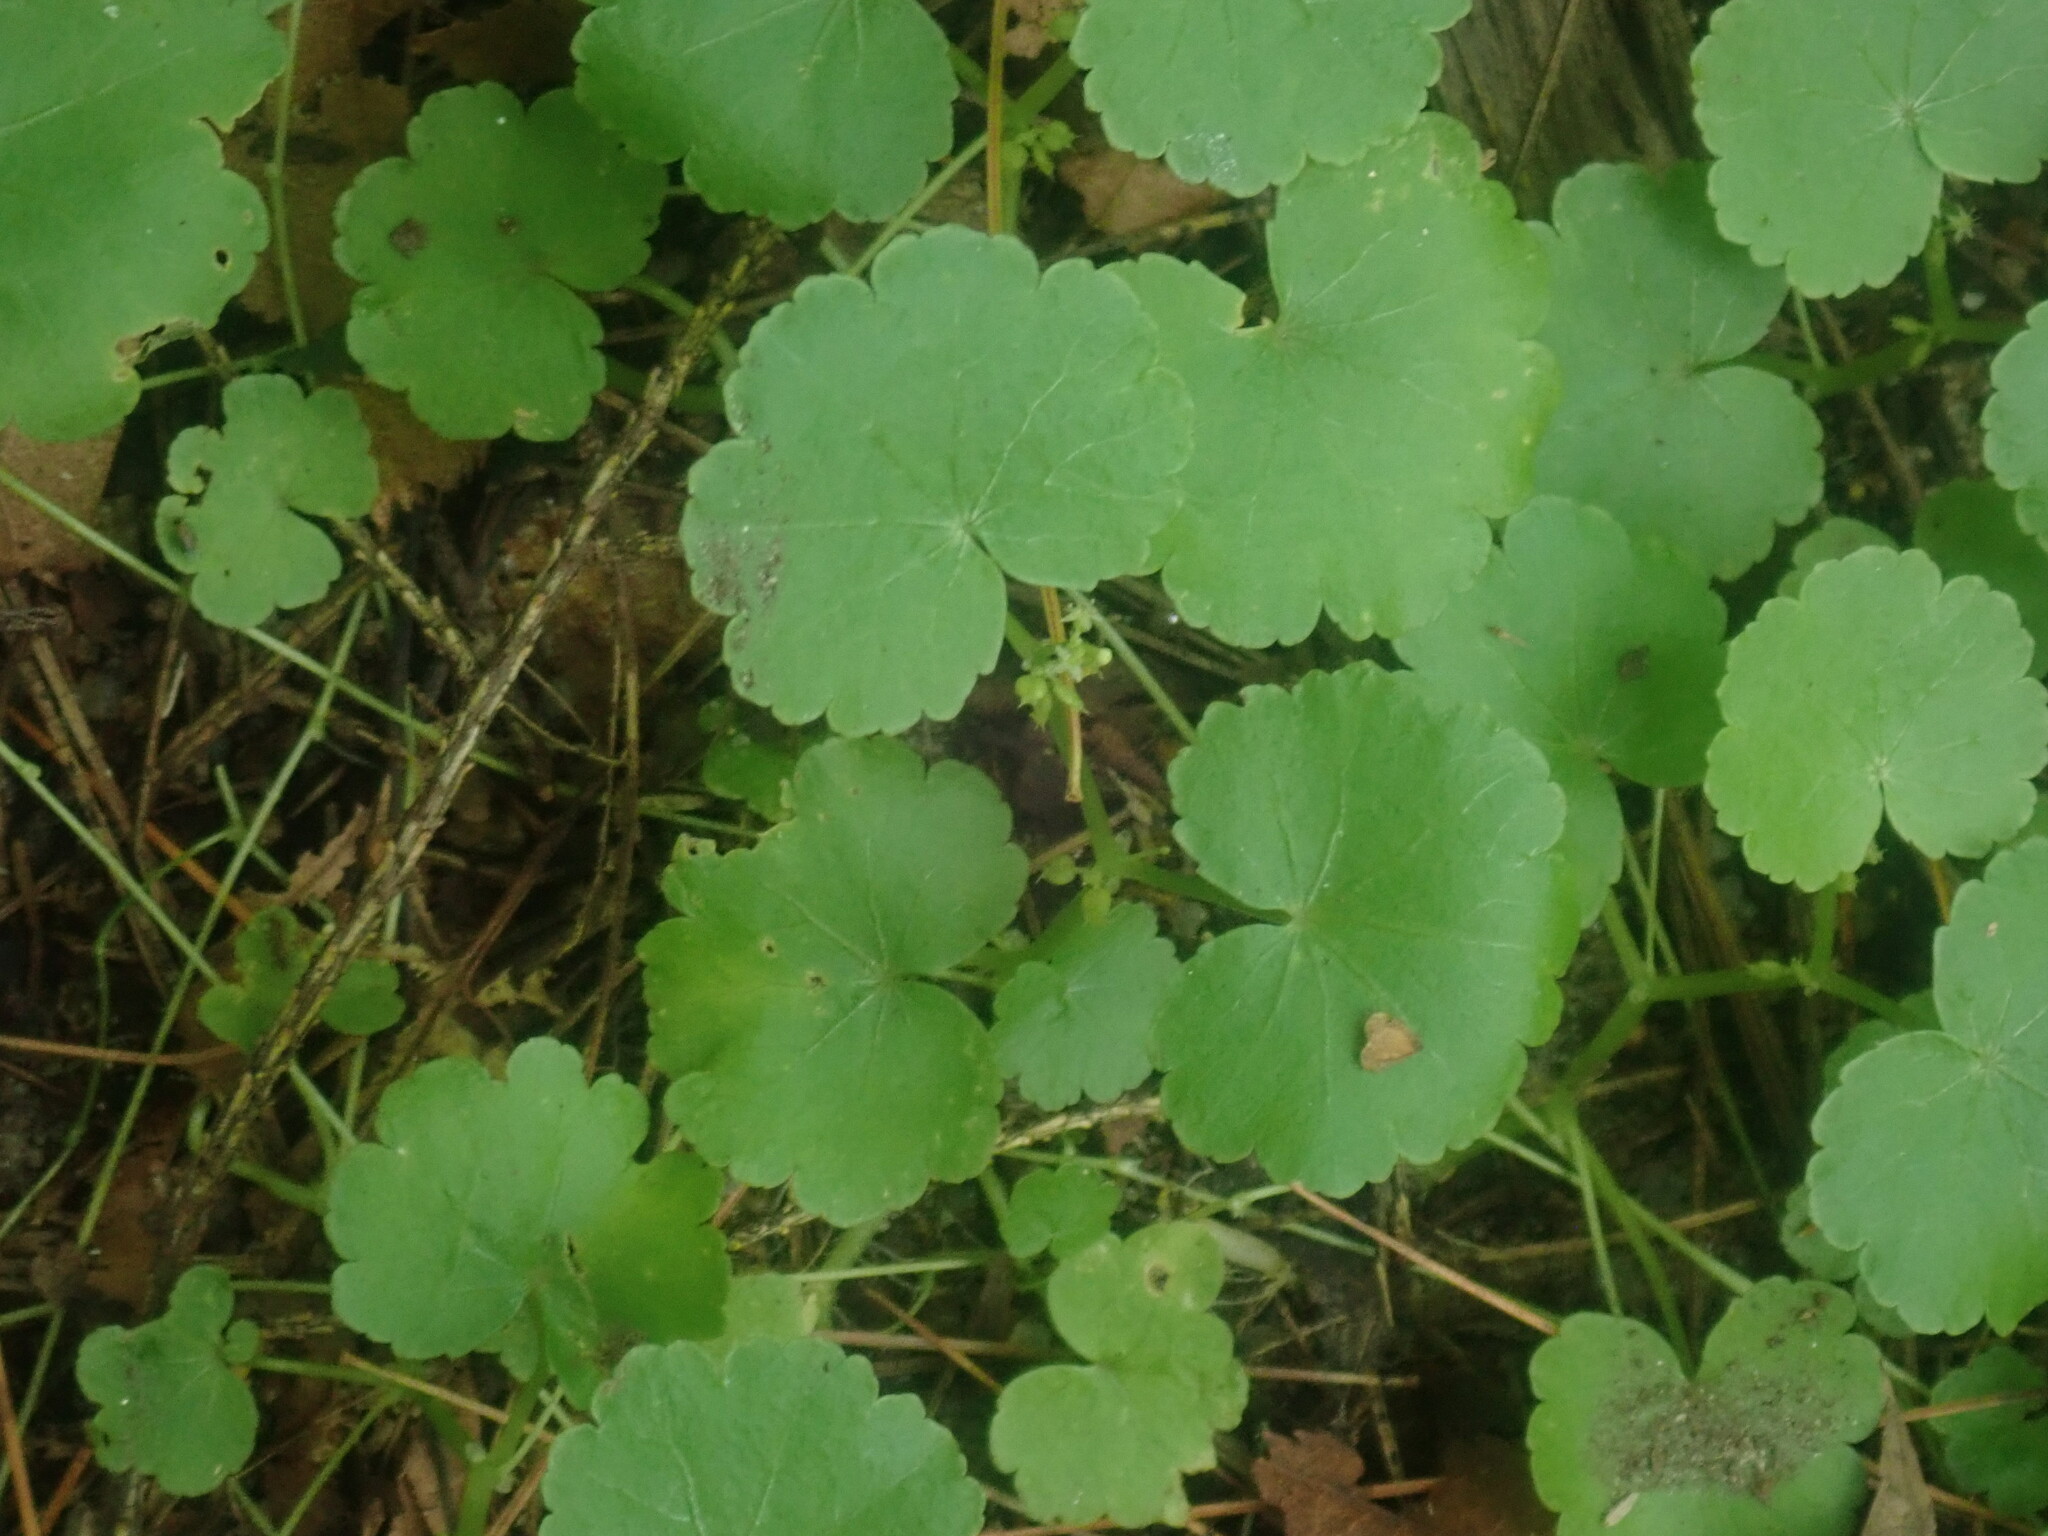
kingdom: Plantae
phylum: Tracheophyta
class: Magnoliopsida
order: Apiales
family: Araliaceae
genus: Hydrocotyle
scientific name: Hydrocotyle americana
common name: American water-pennywort
